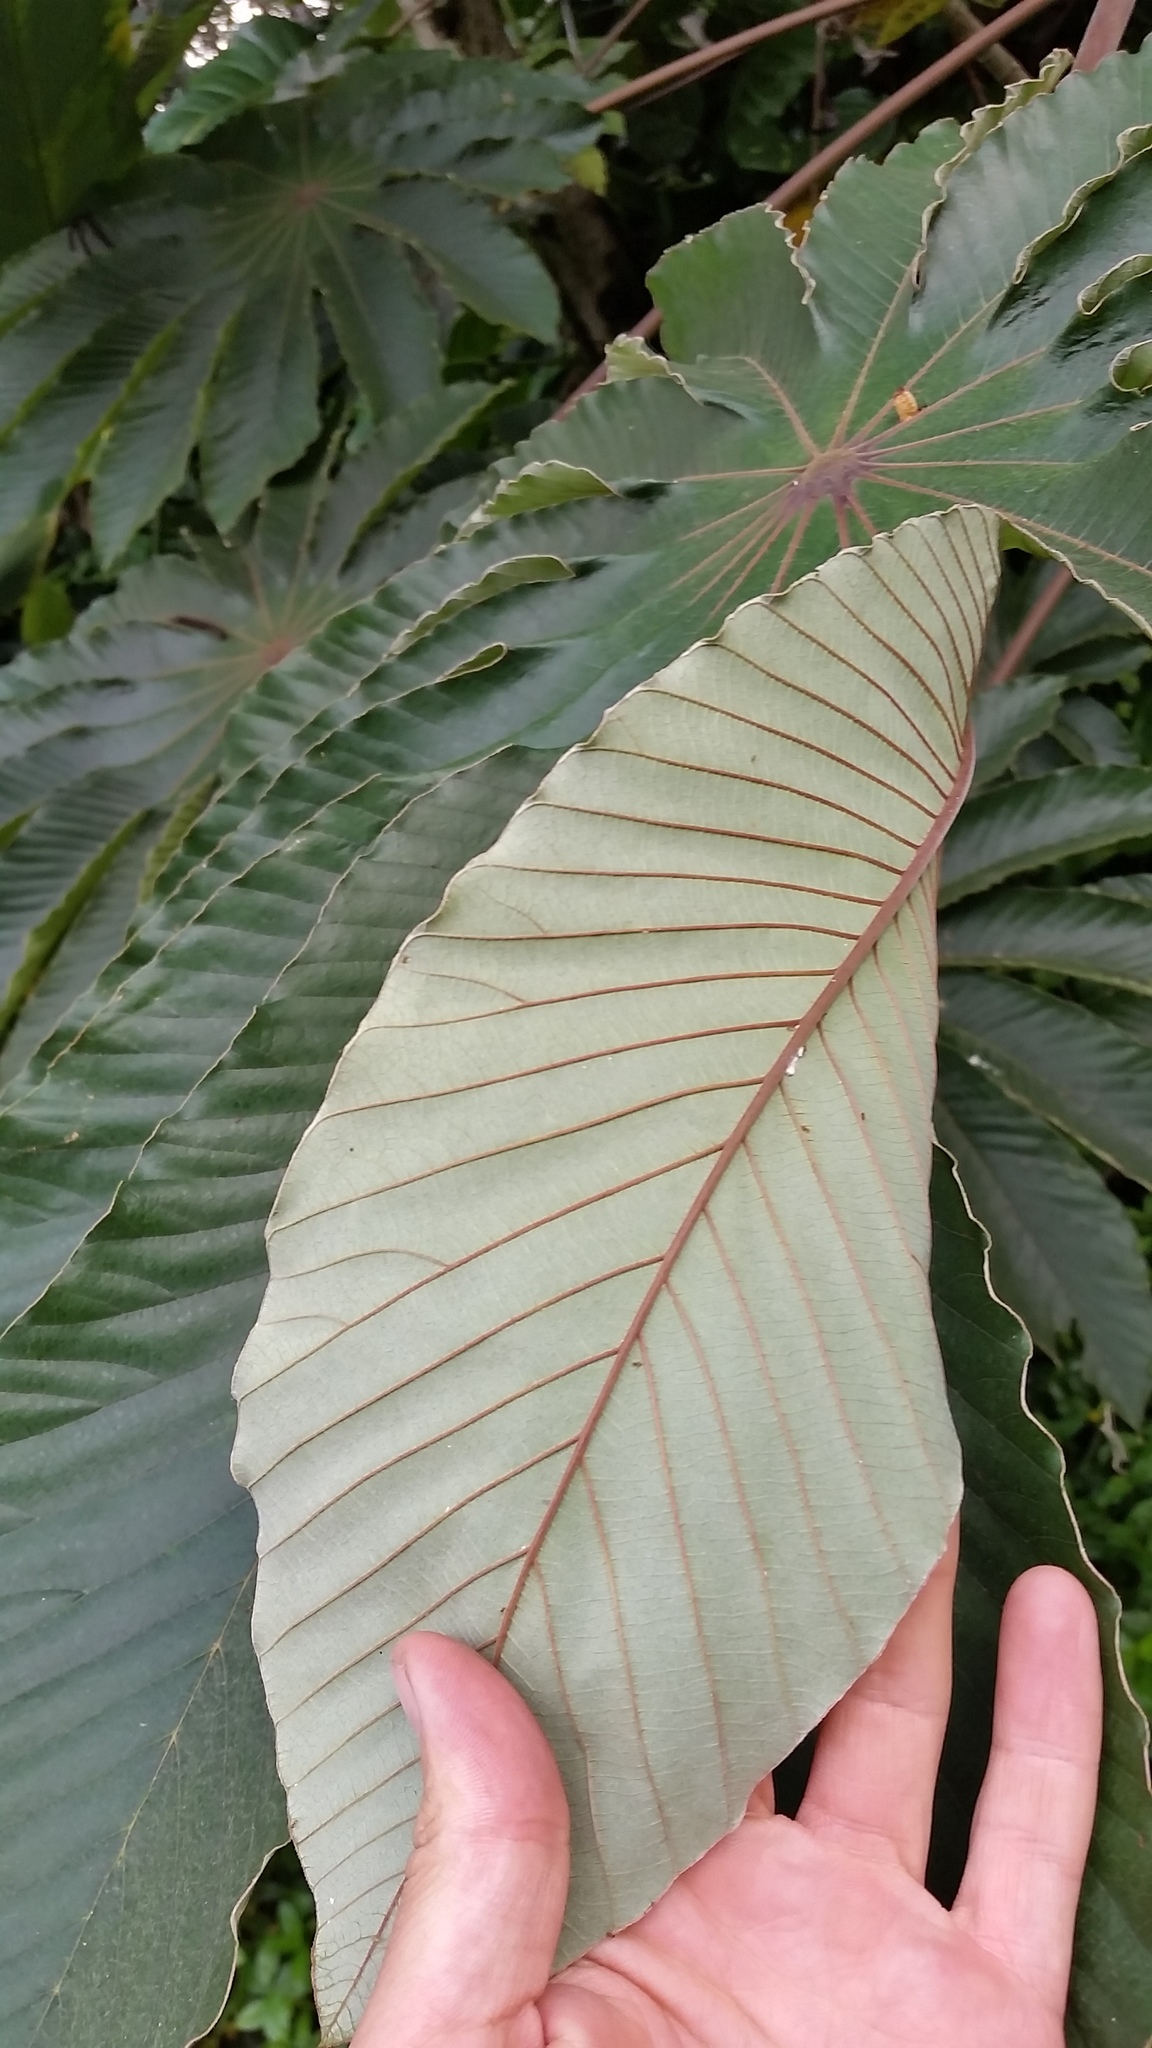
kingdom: Plantae
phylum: Tracheophyta
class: Magnoliopsida
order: Rosales
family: Urticaceae
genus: Cecropia
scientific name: Cecropia obtusifolia
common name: Trumpet tree
